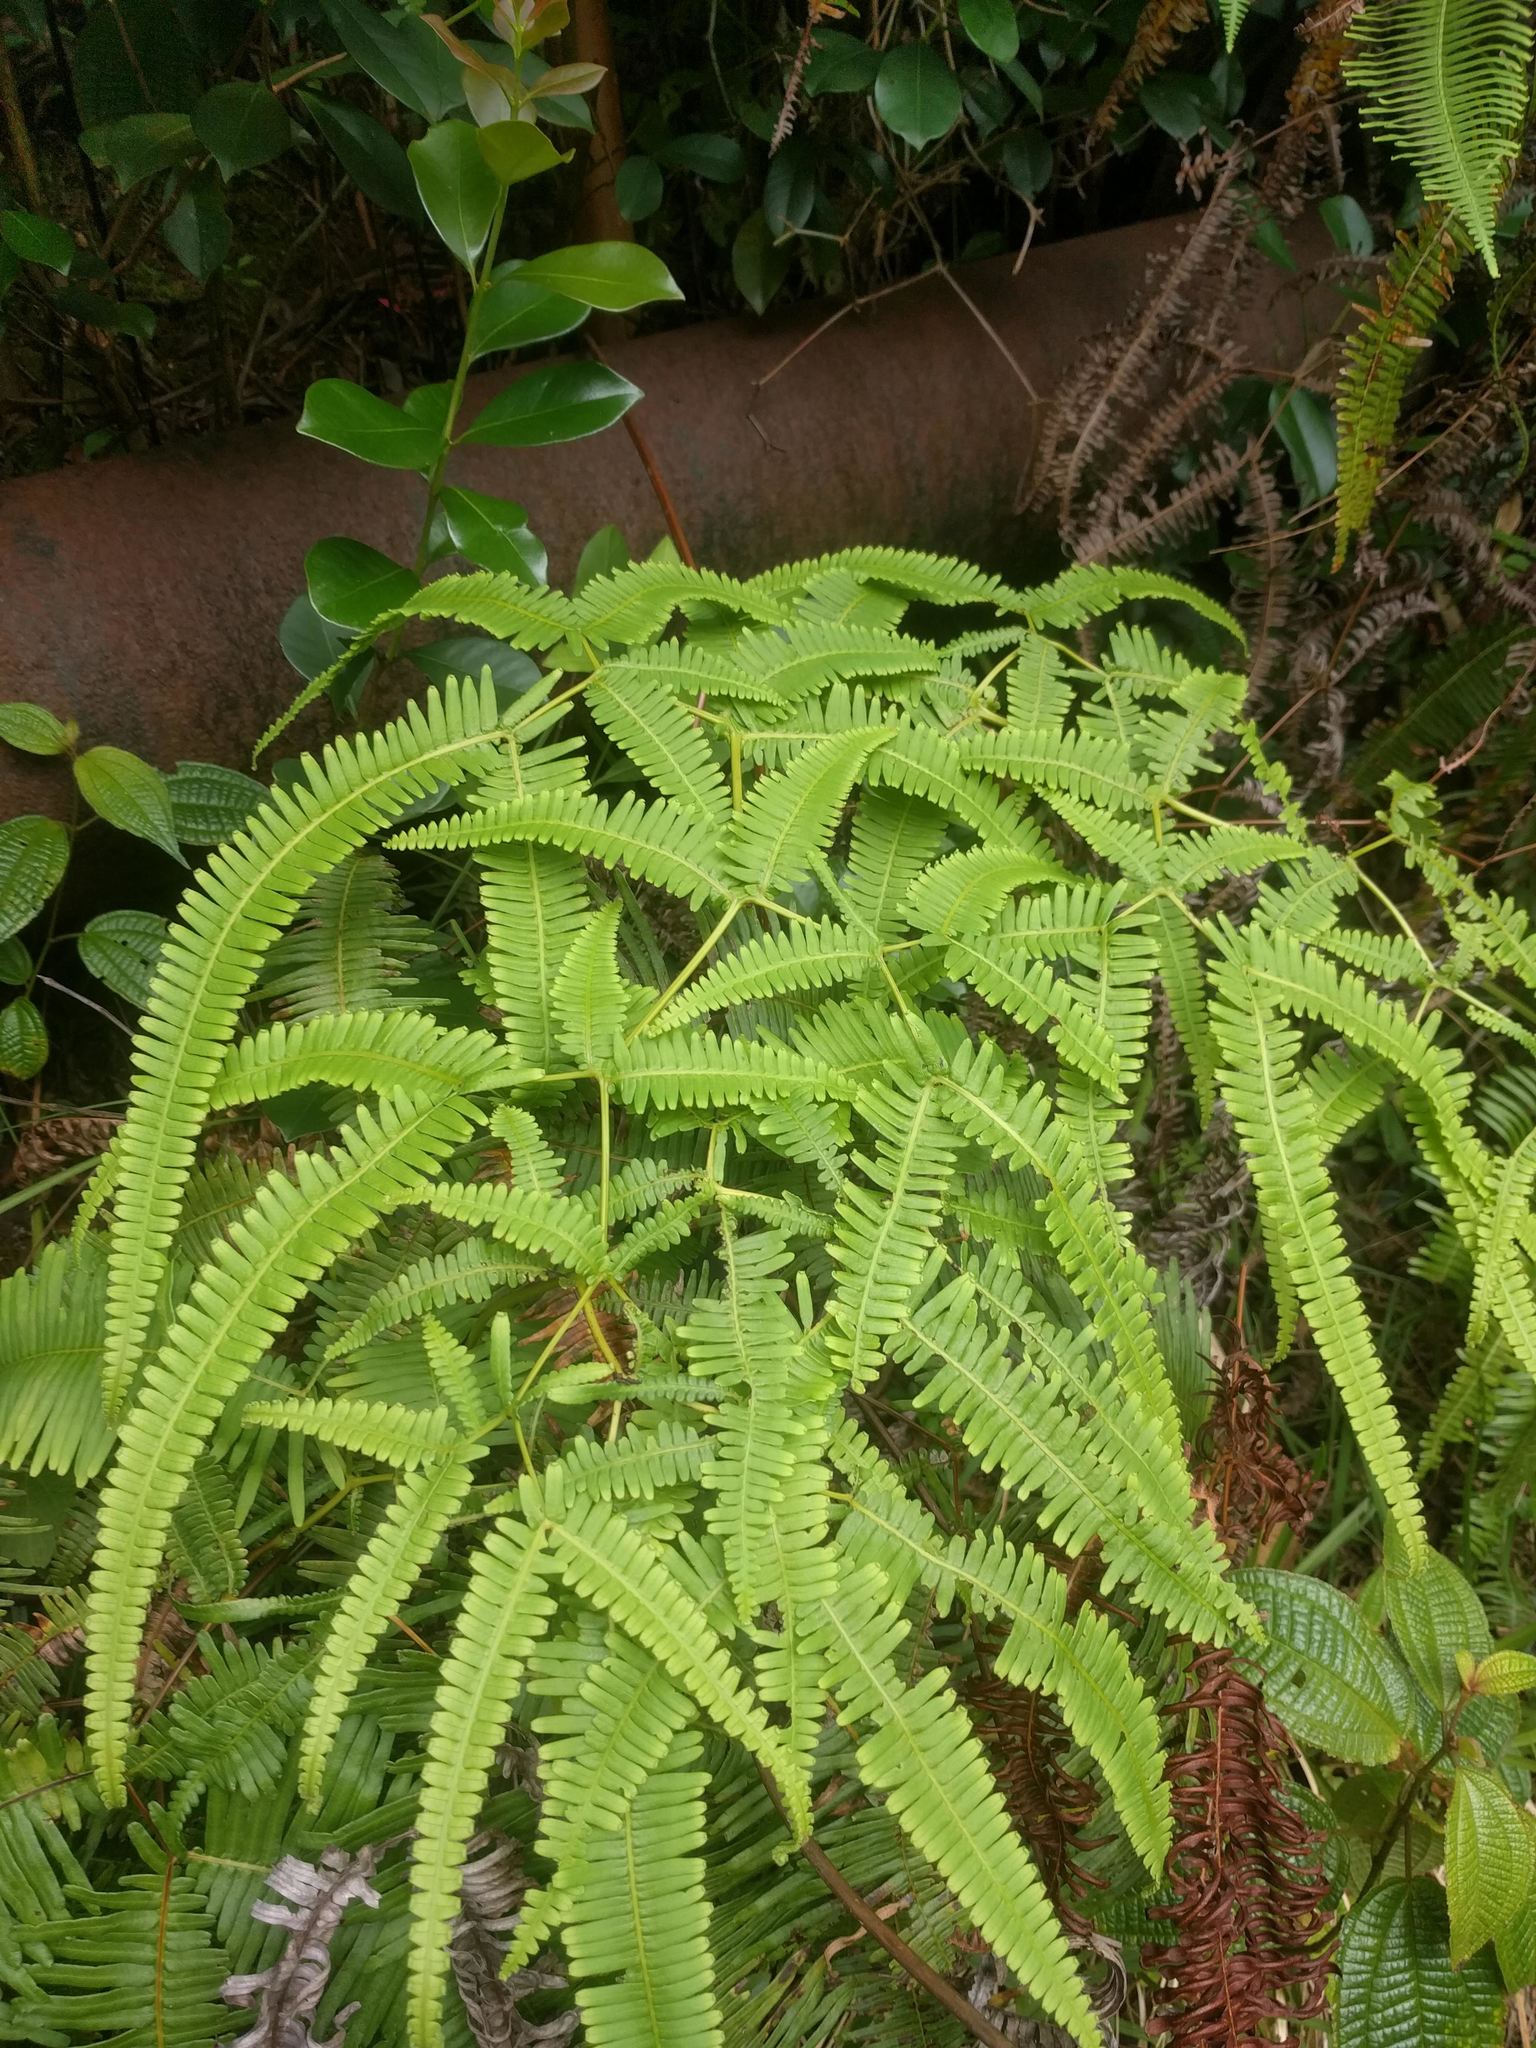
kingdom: Plantae
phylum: Tracheophyta
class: Polypodiopsida
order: Gleicheniales
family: Gleicheniaceae
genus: Dicranopteris
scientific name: Dicranopteris linearis
